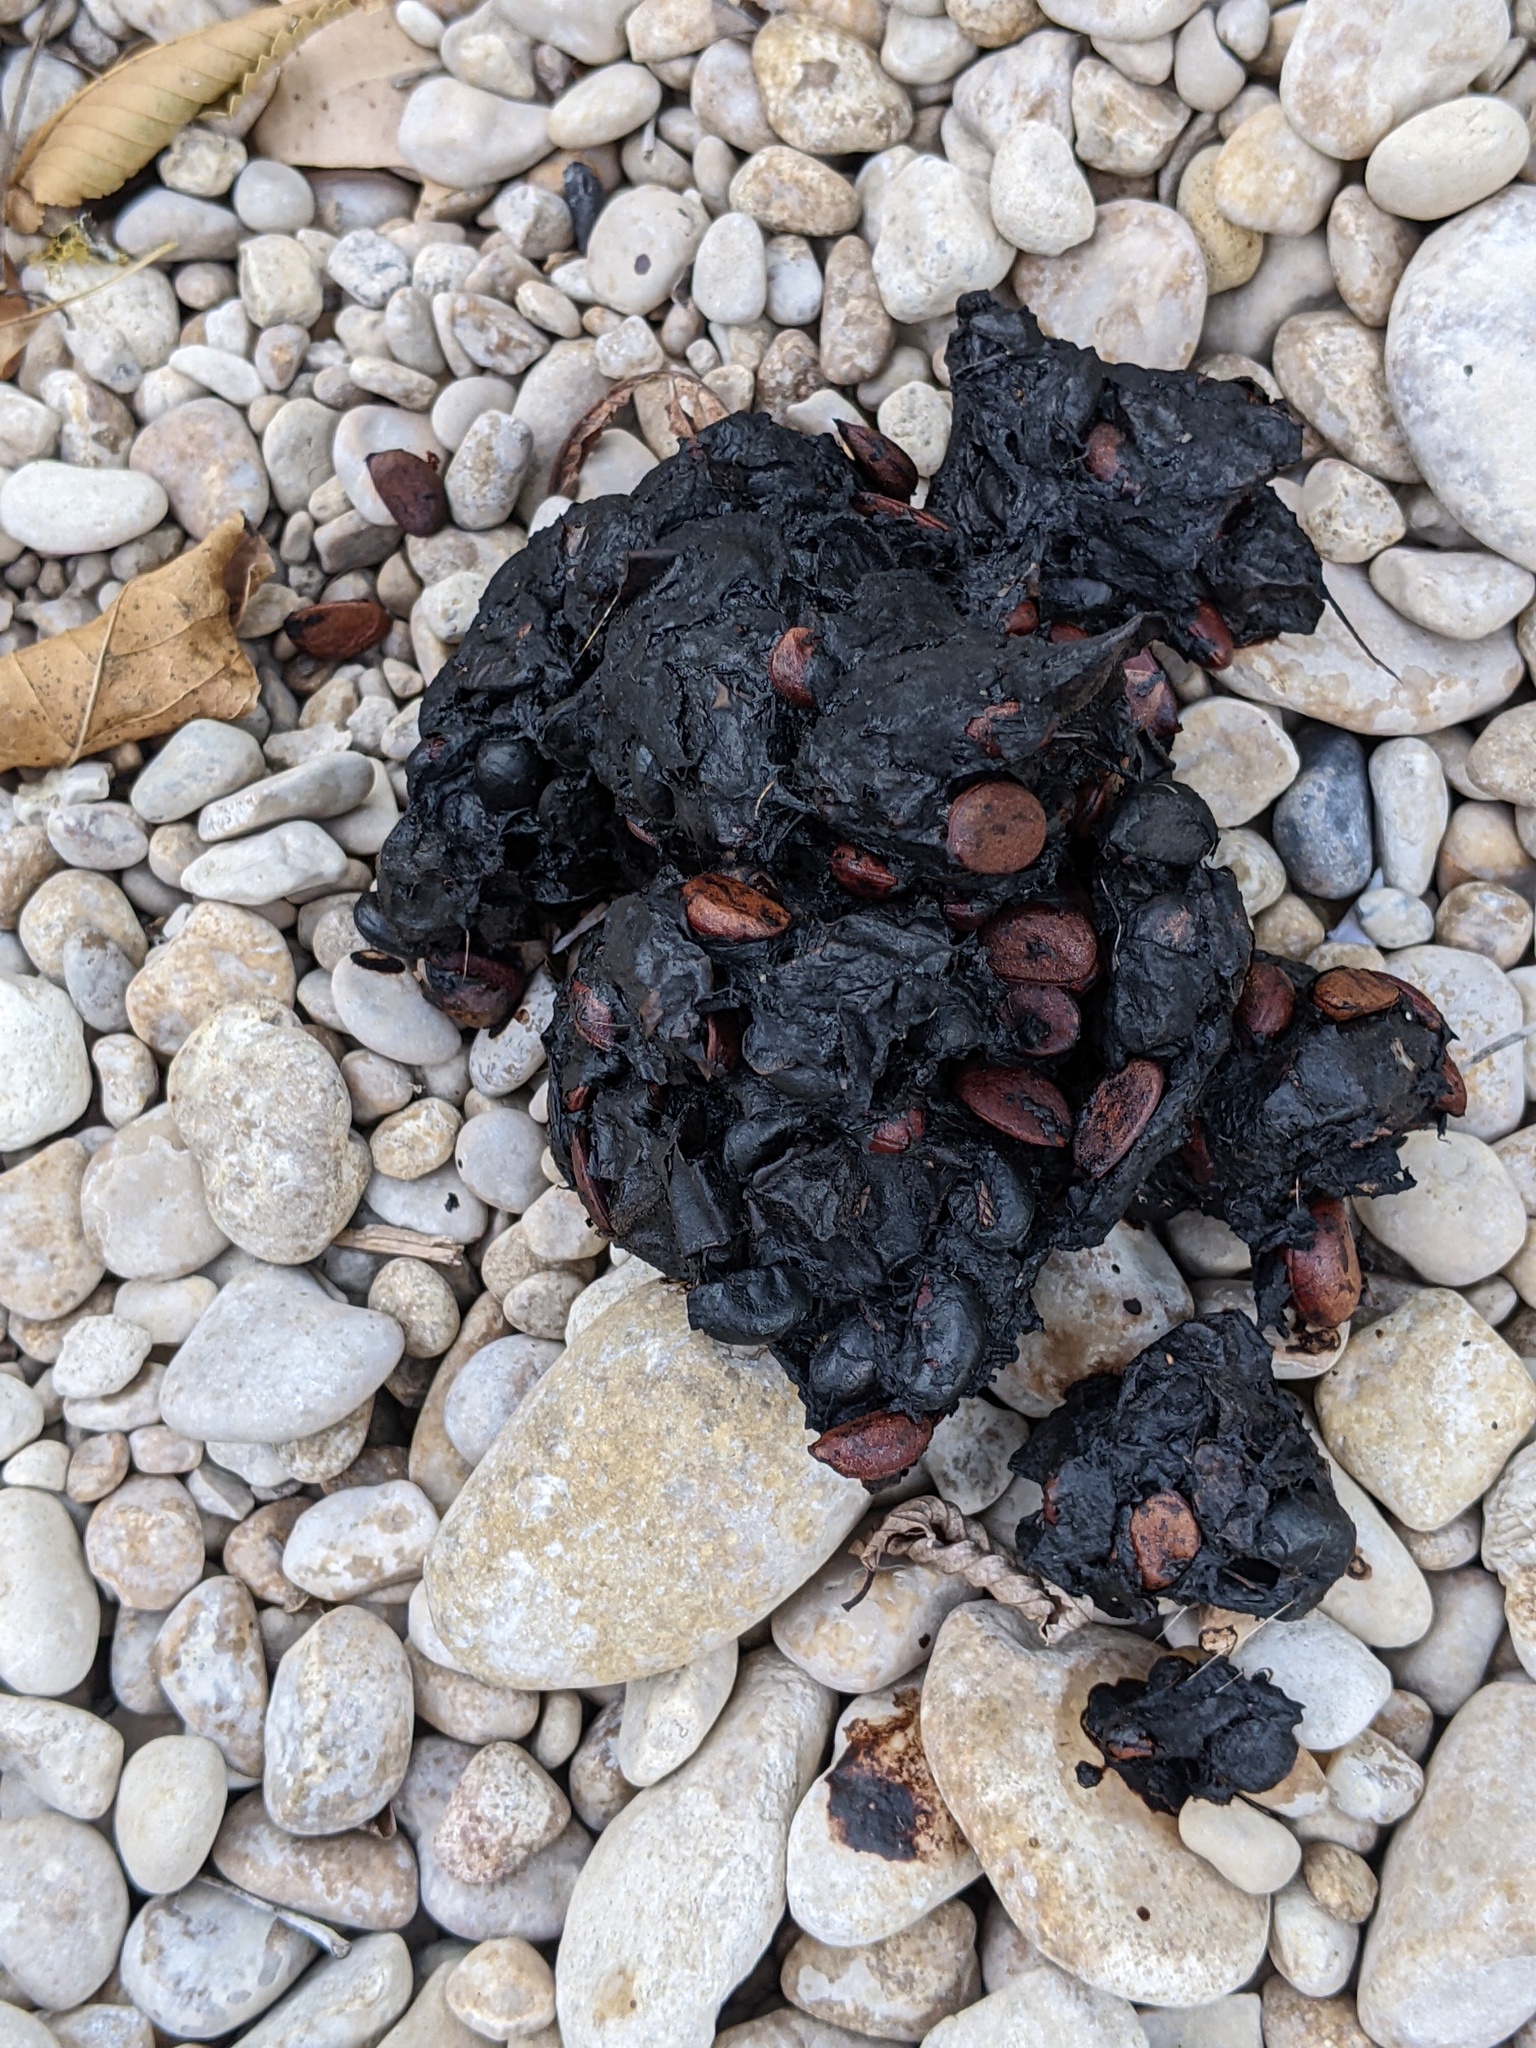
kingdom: Plantae
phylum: Tracheophyta
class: Magnoliopsida
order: Ericales
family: Ebenaceae
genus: Diospyros
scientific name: Diospyros texana
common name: Texas persimmon
